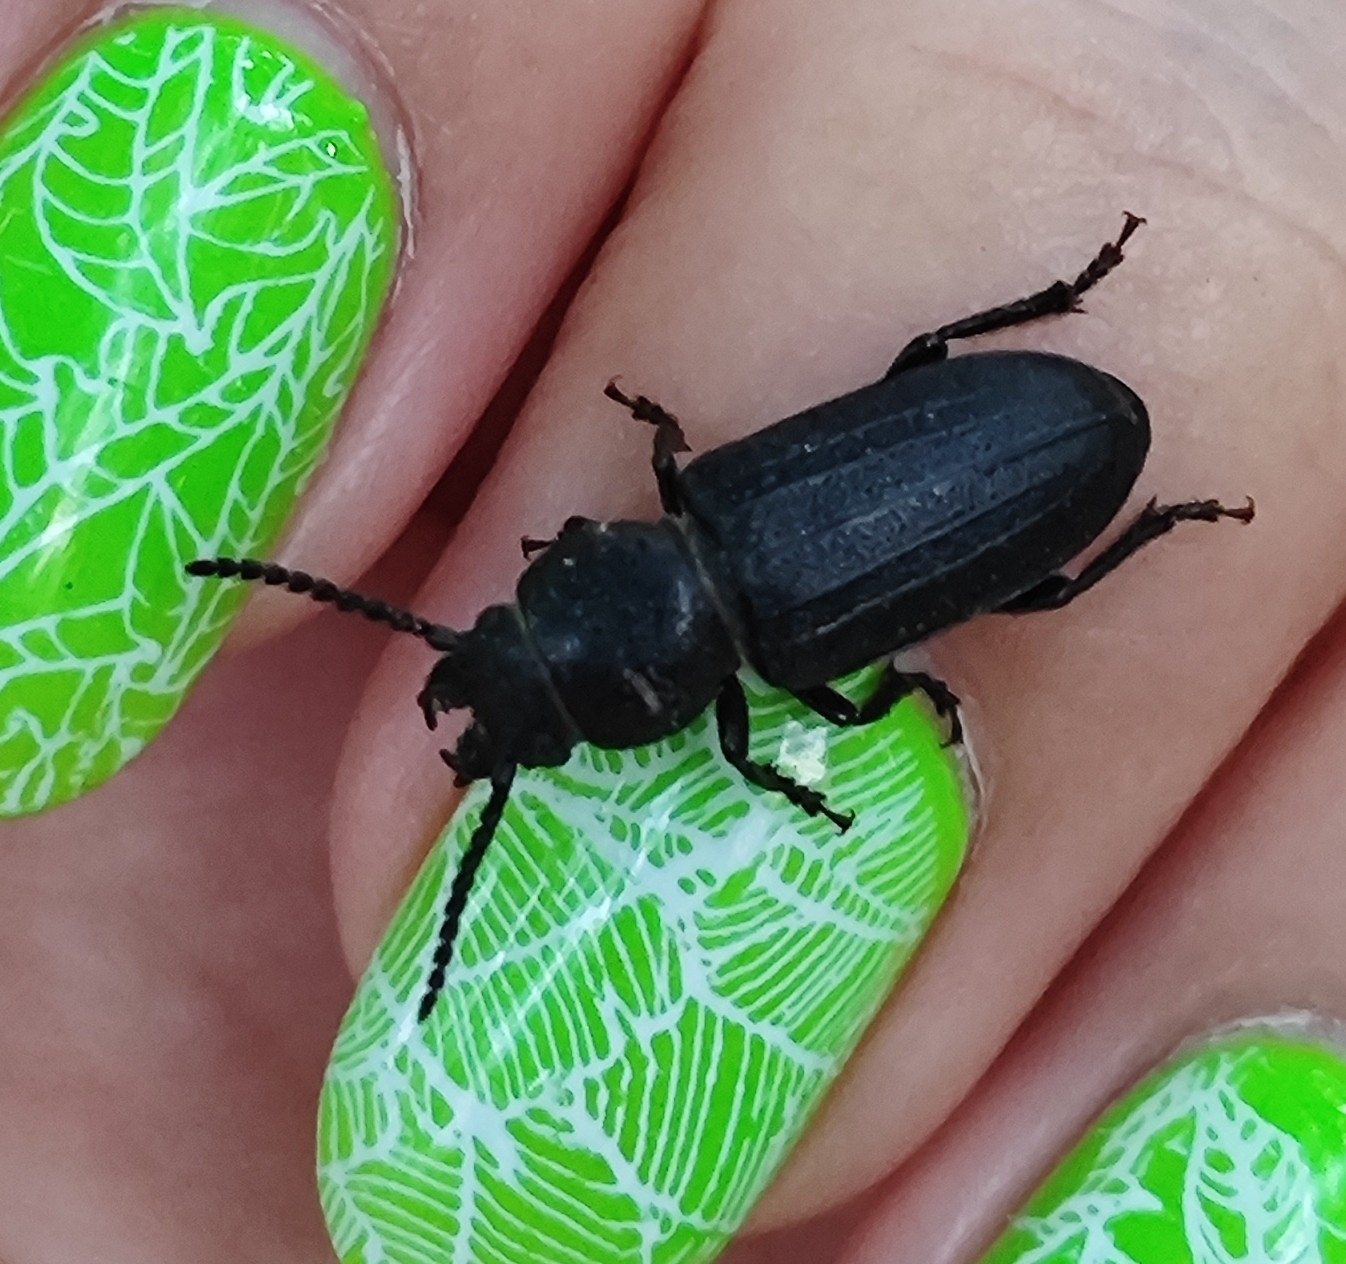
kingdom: Animalia
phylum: Arthropoda
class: Insecta
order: Coleoptera
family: Cerambycidae
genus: Spondylis
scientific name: Spondylis buprestoides
